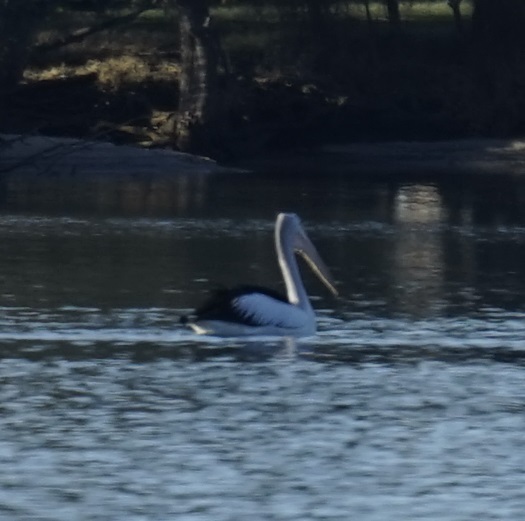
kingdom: Animalia
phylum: Chordata
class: Aves
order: Pelecaniformes
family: Pelecanidae
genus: Pelecanus
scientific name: Pelecanus conspicillatus
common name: Australian pelican
